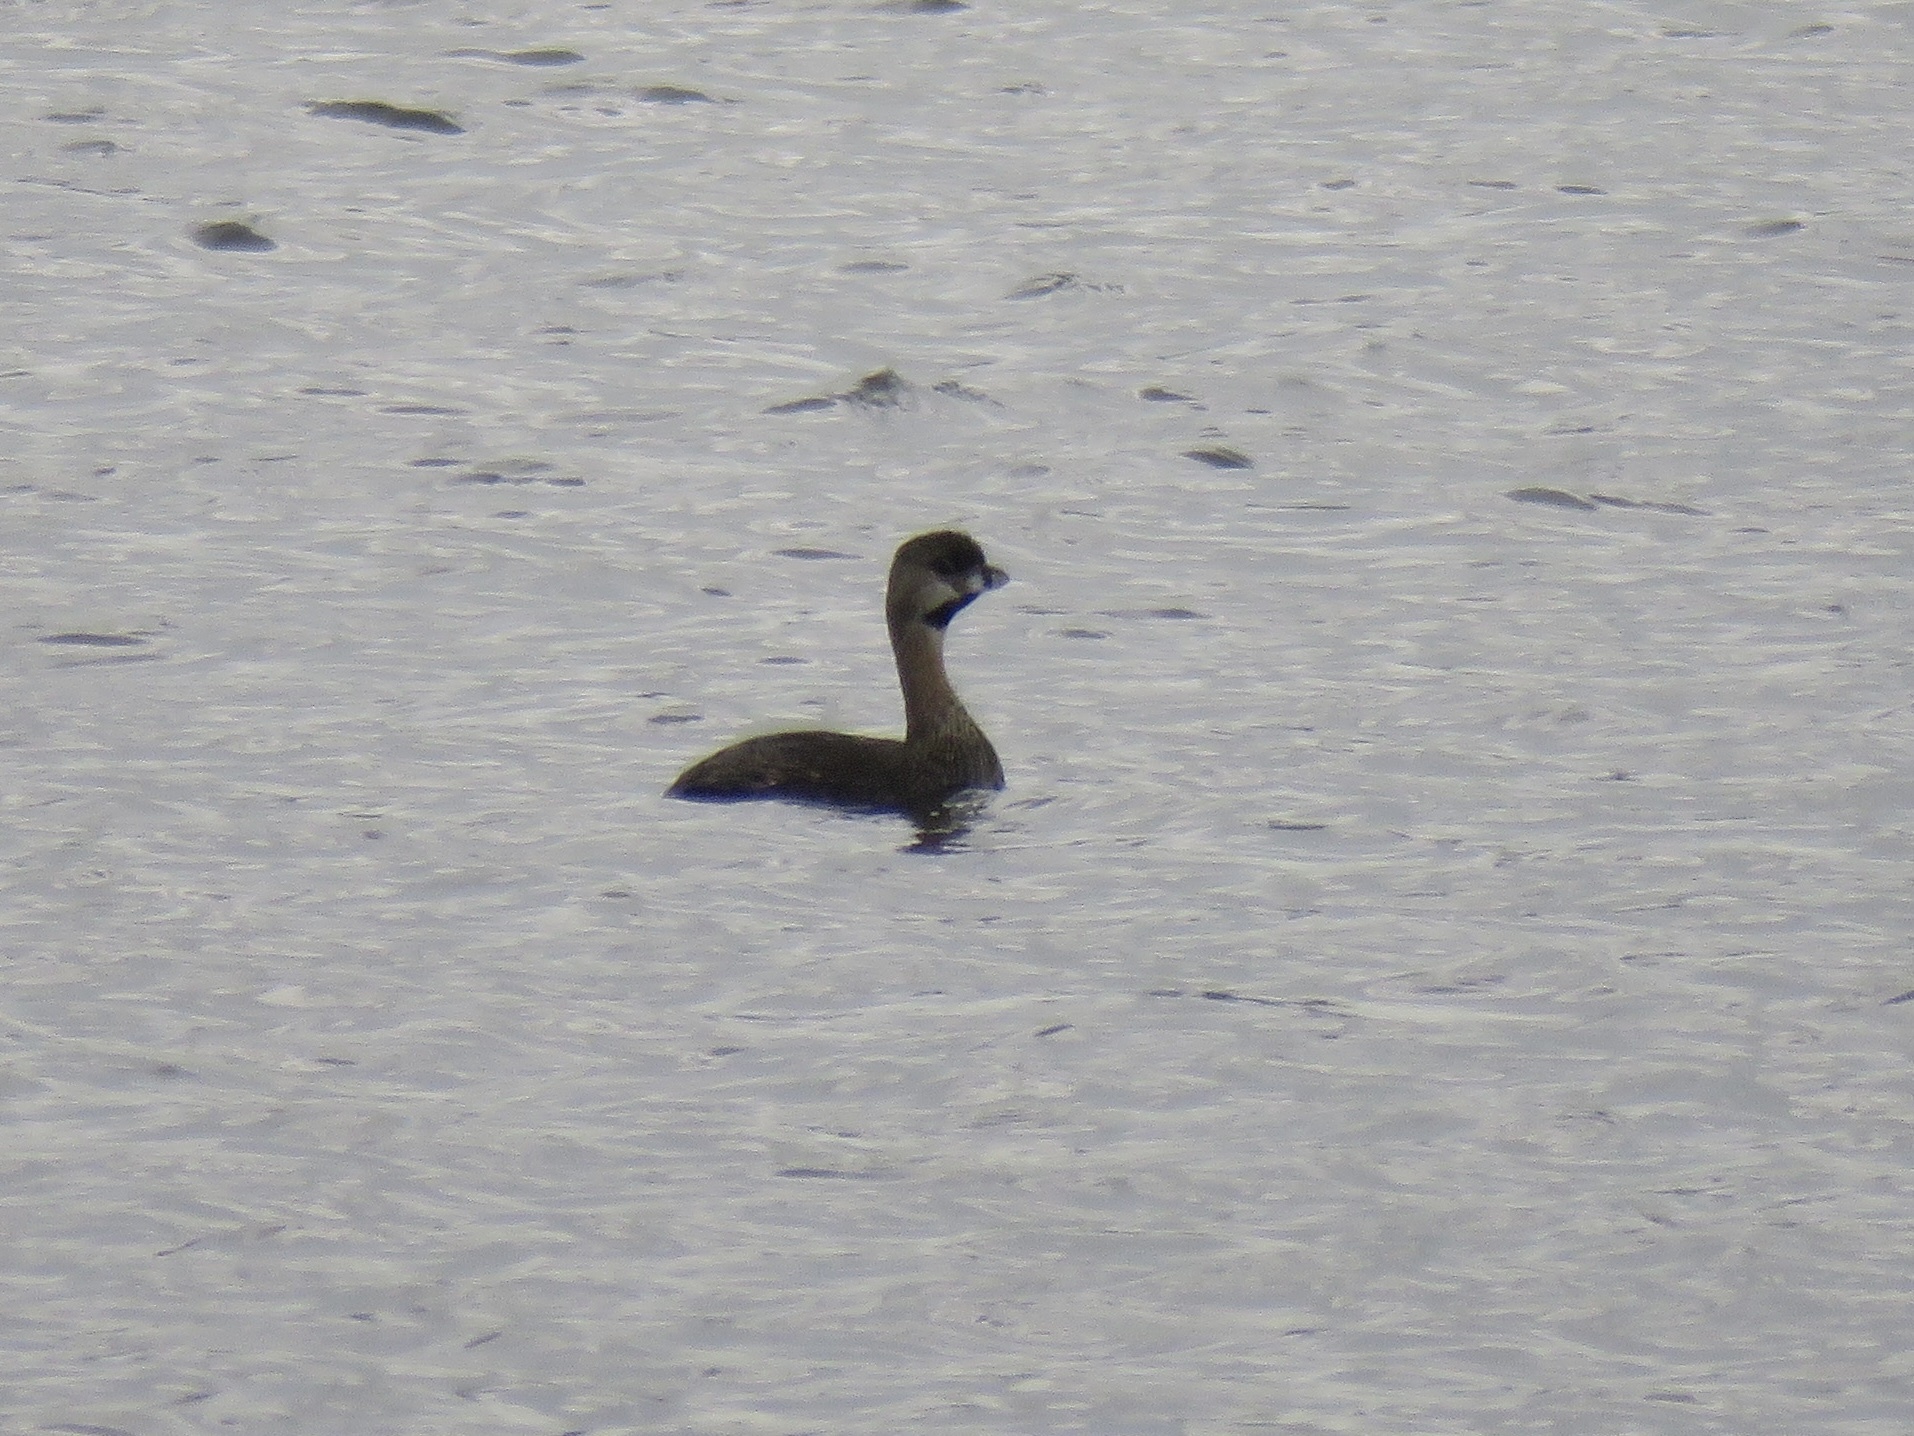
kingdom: Animalia
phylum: Chordata
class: Aves
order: Podicipediformes
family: Podicipedidae
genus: Podilymbus
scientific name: Podilymbus podiceps
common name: Pied-billed grebe
